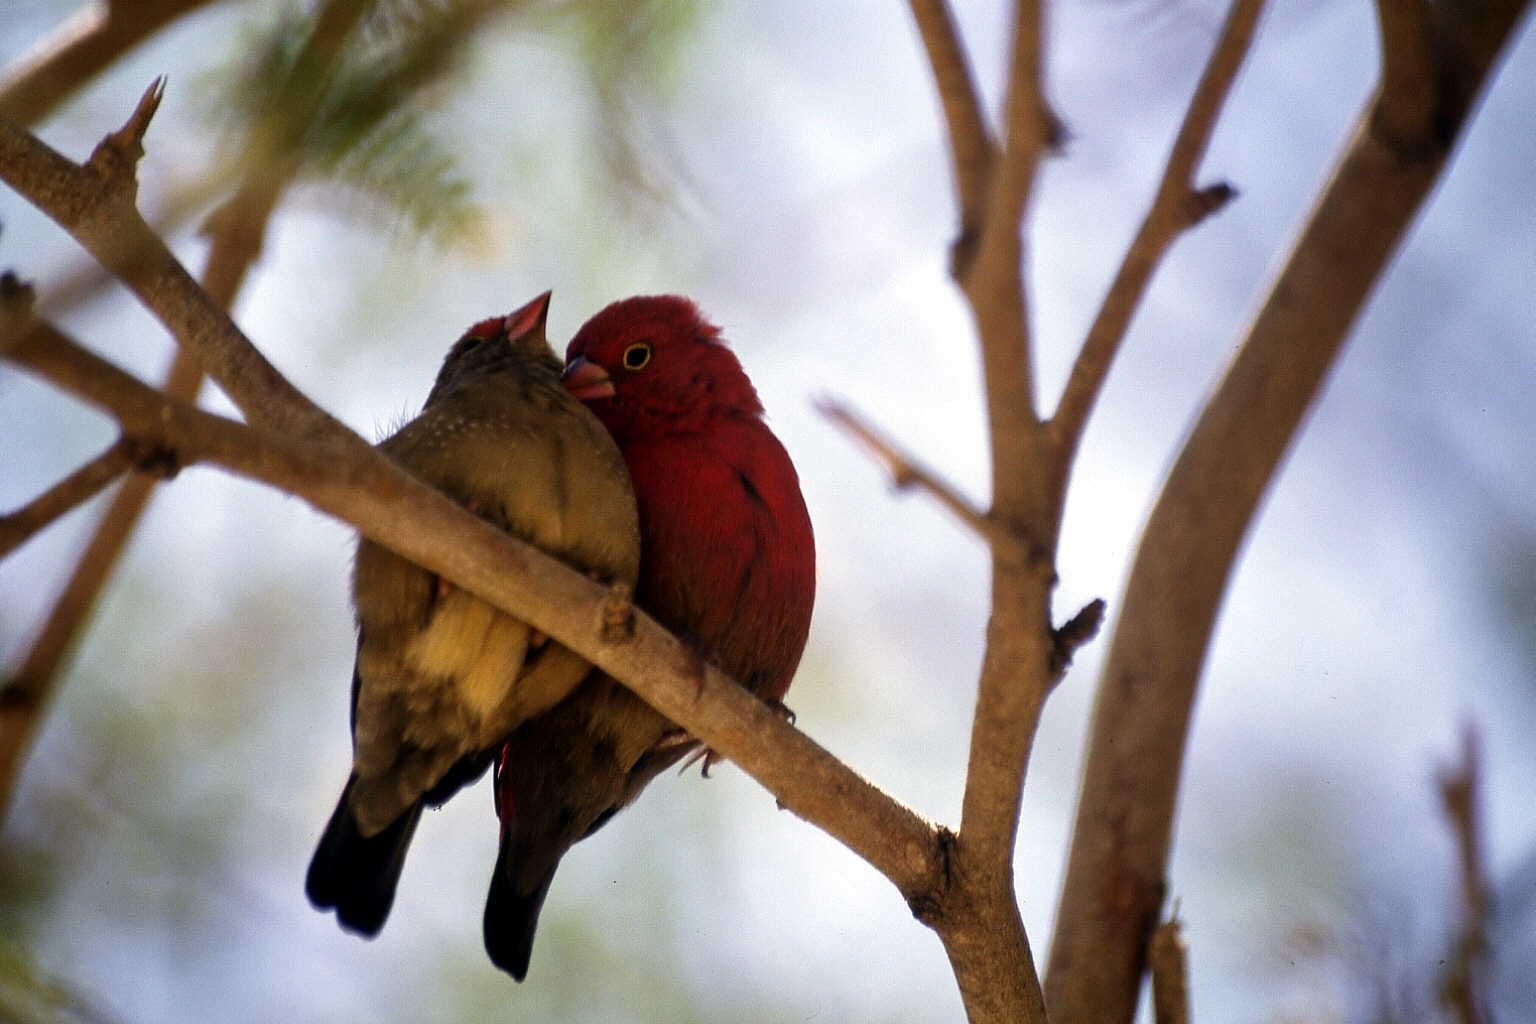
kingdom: Animalia
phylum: Chordata
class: Aves
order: Passeriformes
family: Estrildidae
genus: Lagonosticta
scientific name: Lagonosticta senegala
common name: Red-billed firefinch
